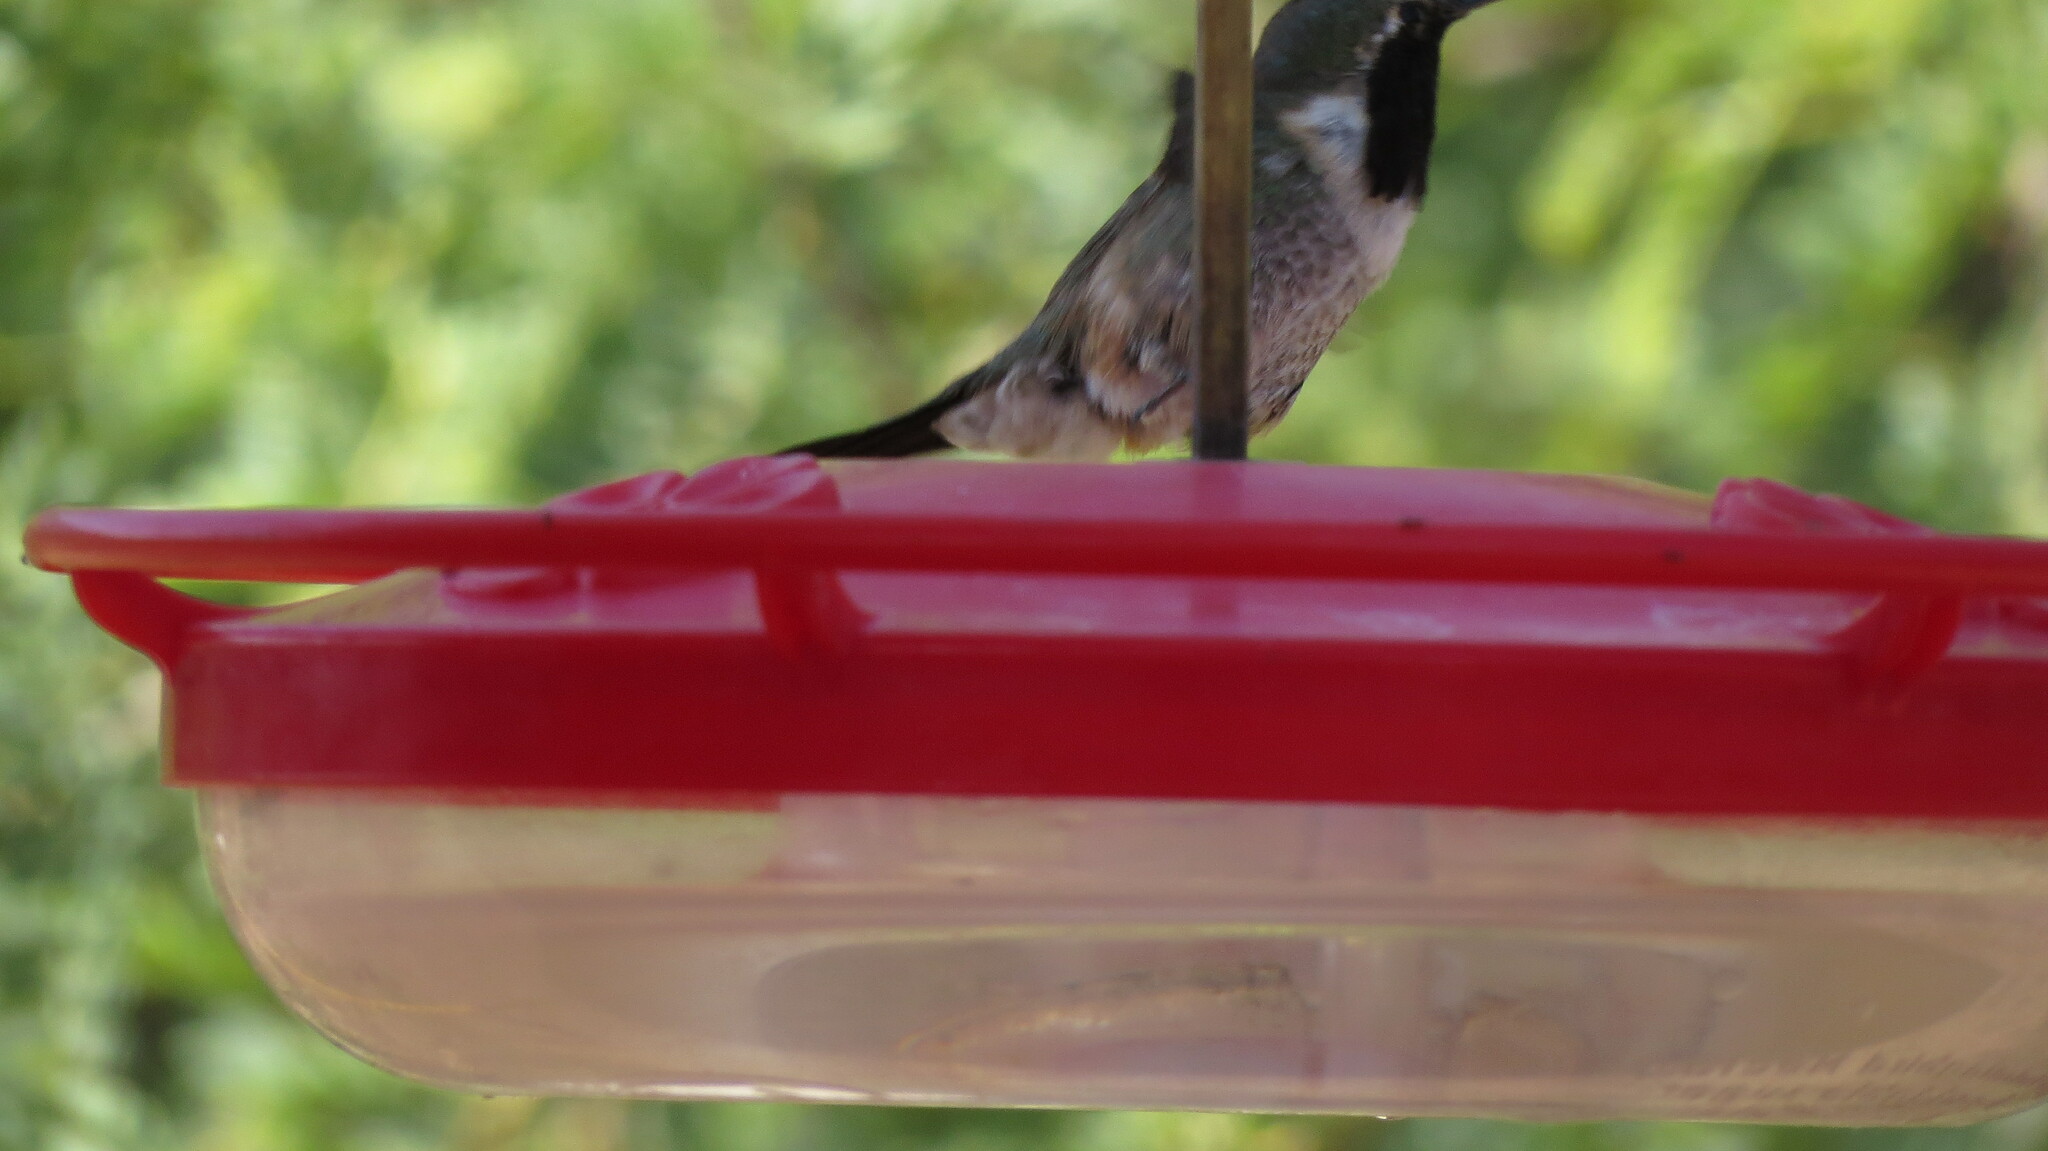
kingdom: Animalia
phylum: Chordata
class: Aves
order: Apodiformes
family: Trochilidae
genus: Calothorax
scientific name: Calothorax lucifer
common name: Lucifer sheartail
